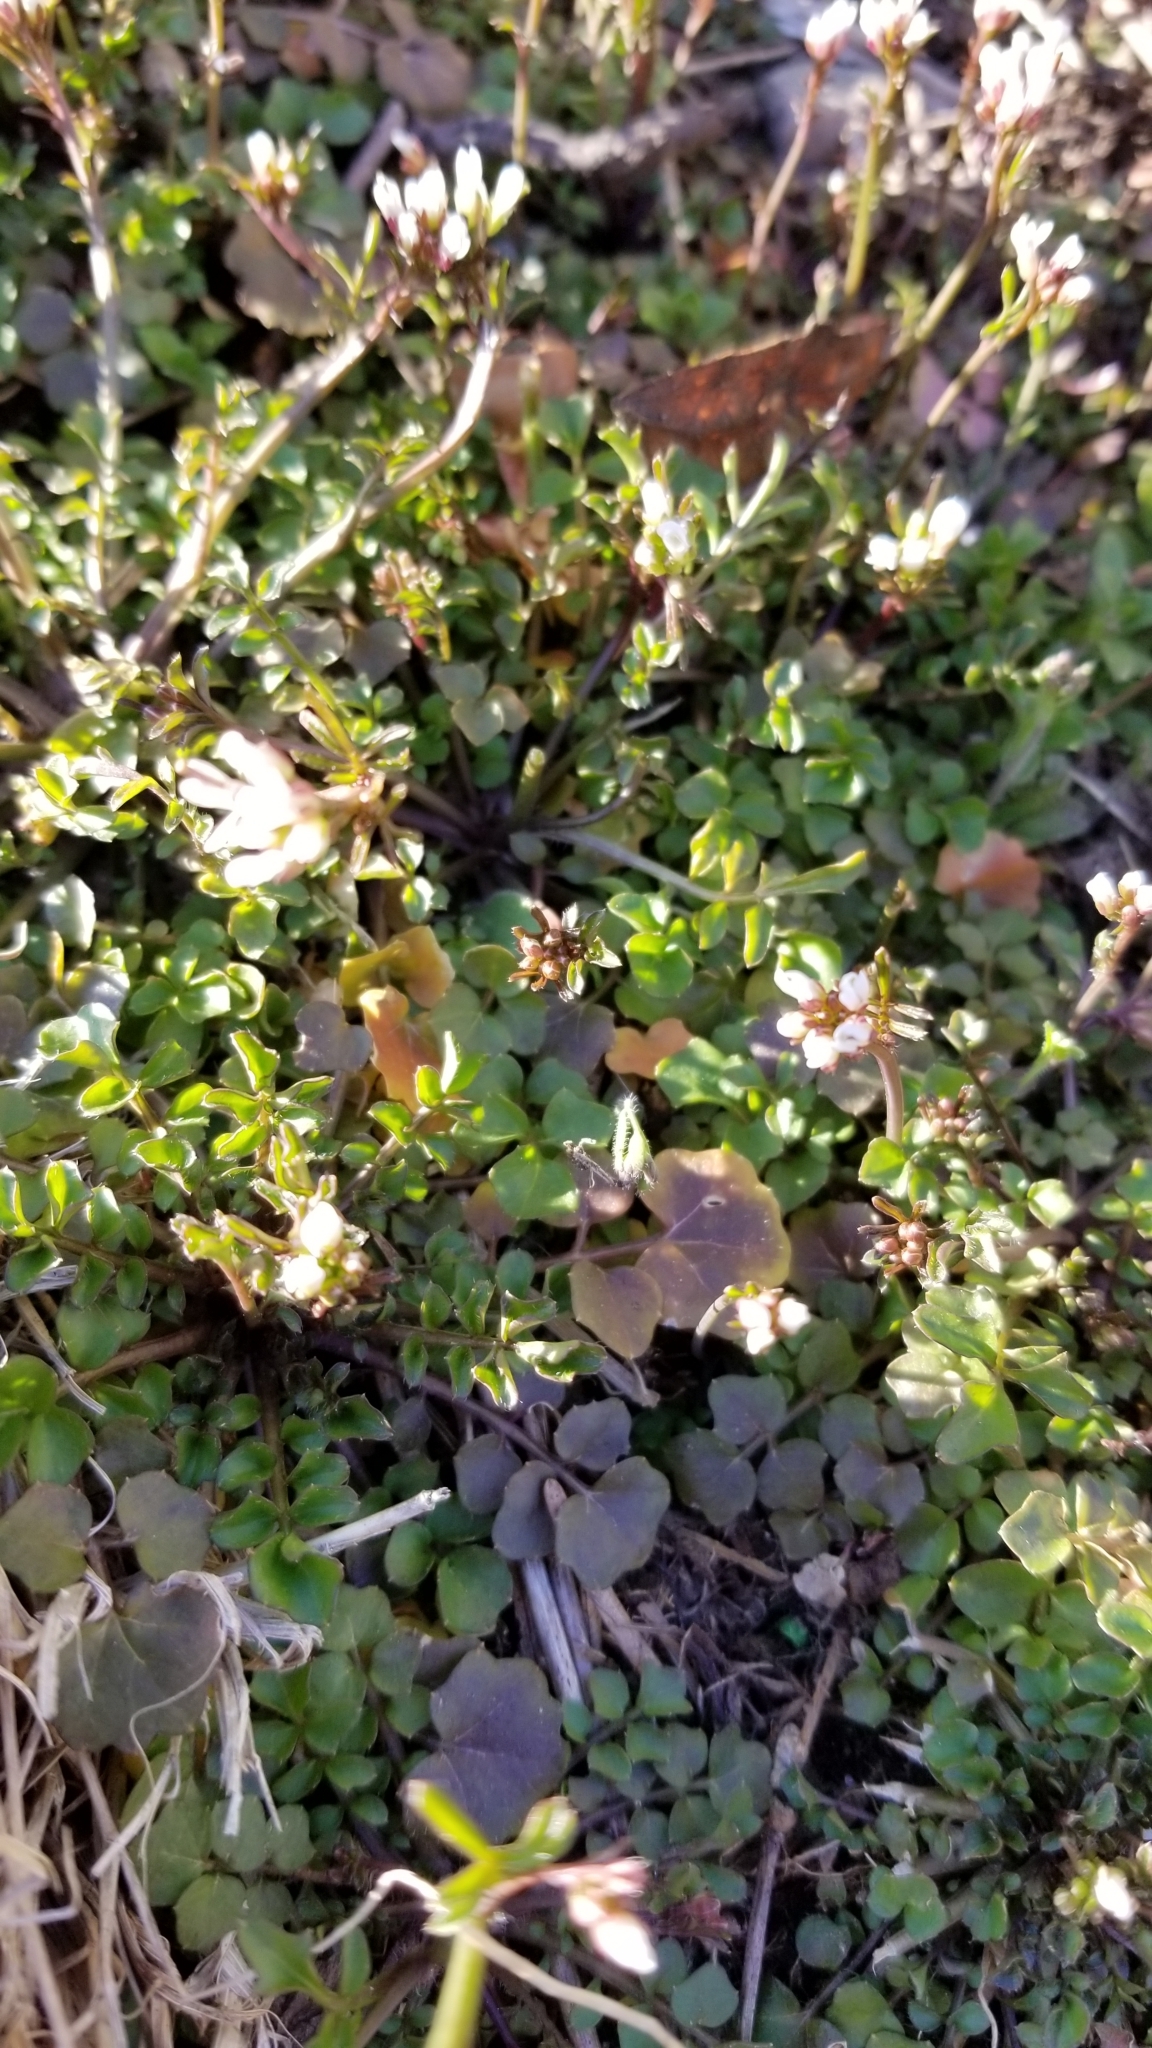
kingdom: Plantae
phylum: Tracheophyta
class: Magnoliopsida
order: Brassicales
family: Brassicaceae
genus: Cardamine
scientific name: Cardamine hirsuta
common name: Hairy bittercress
